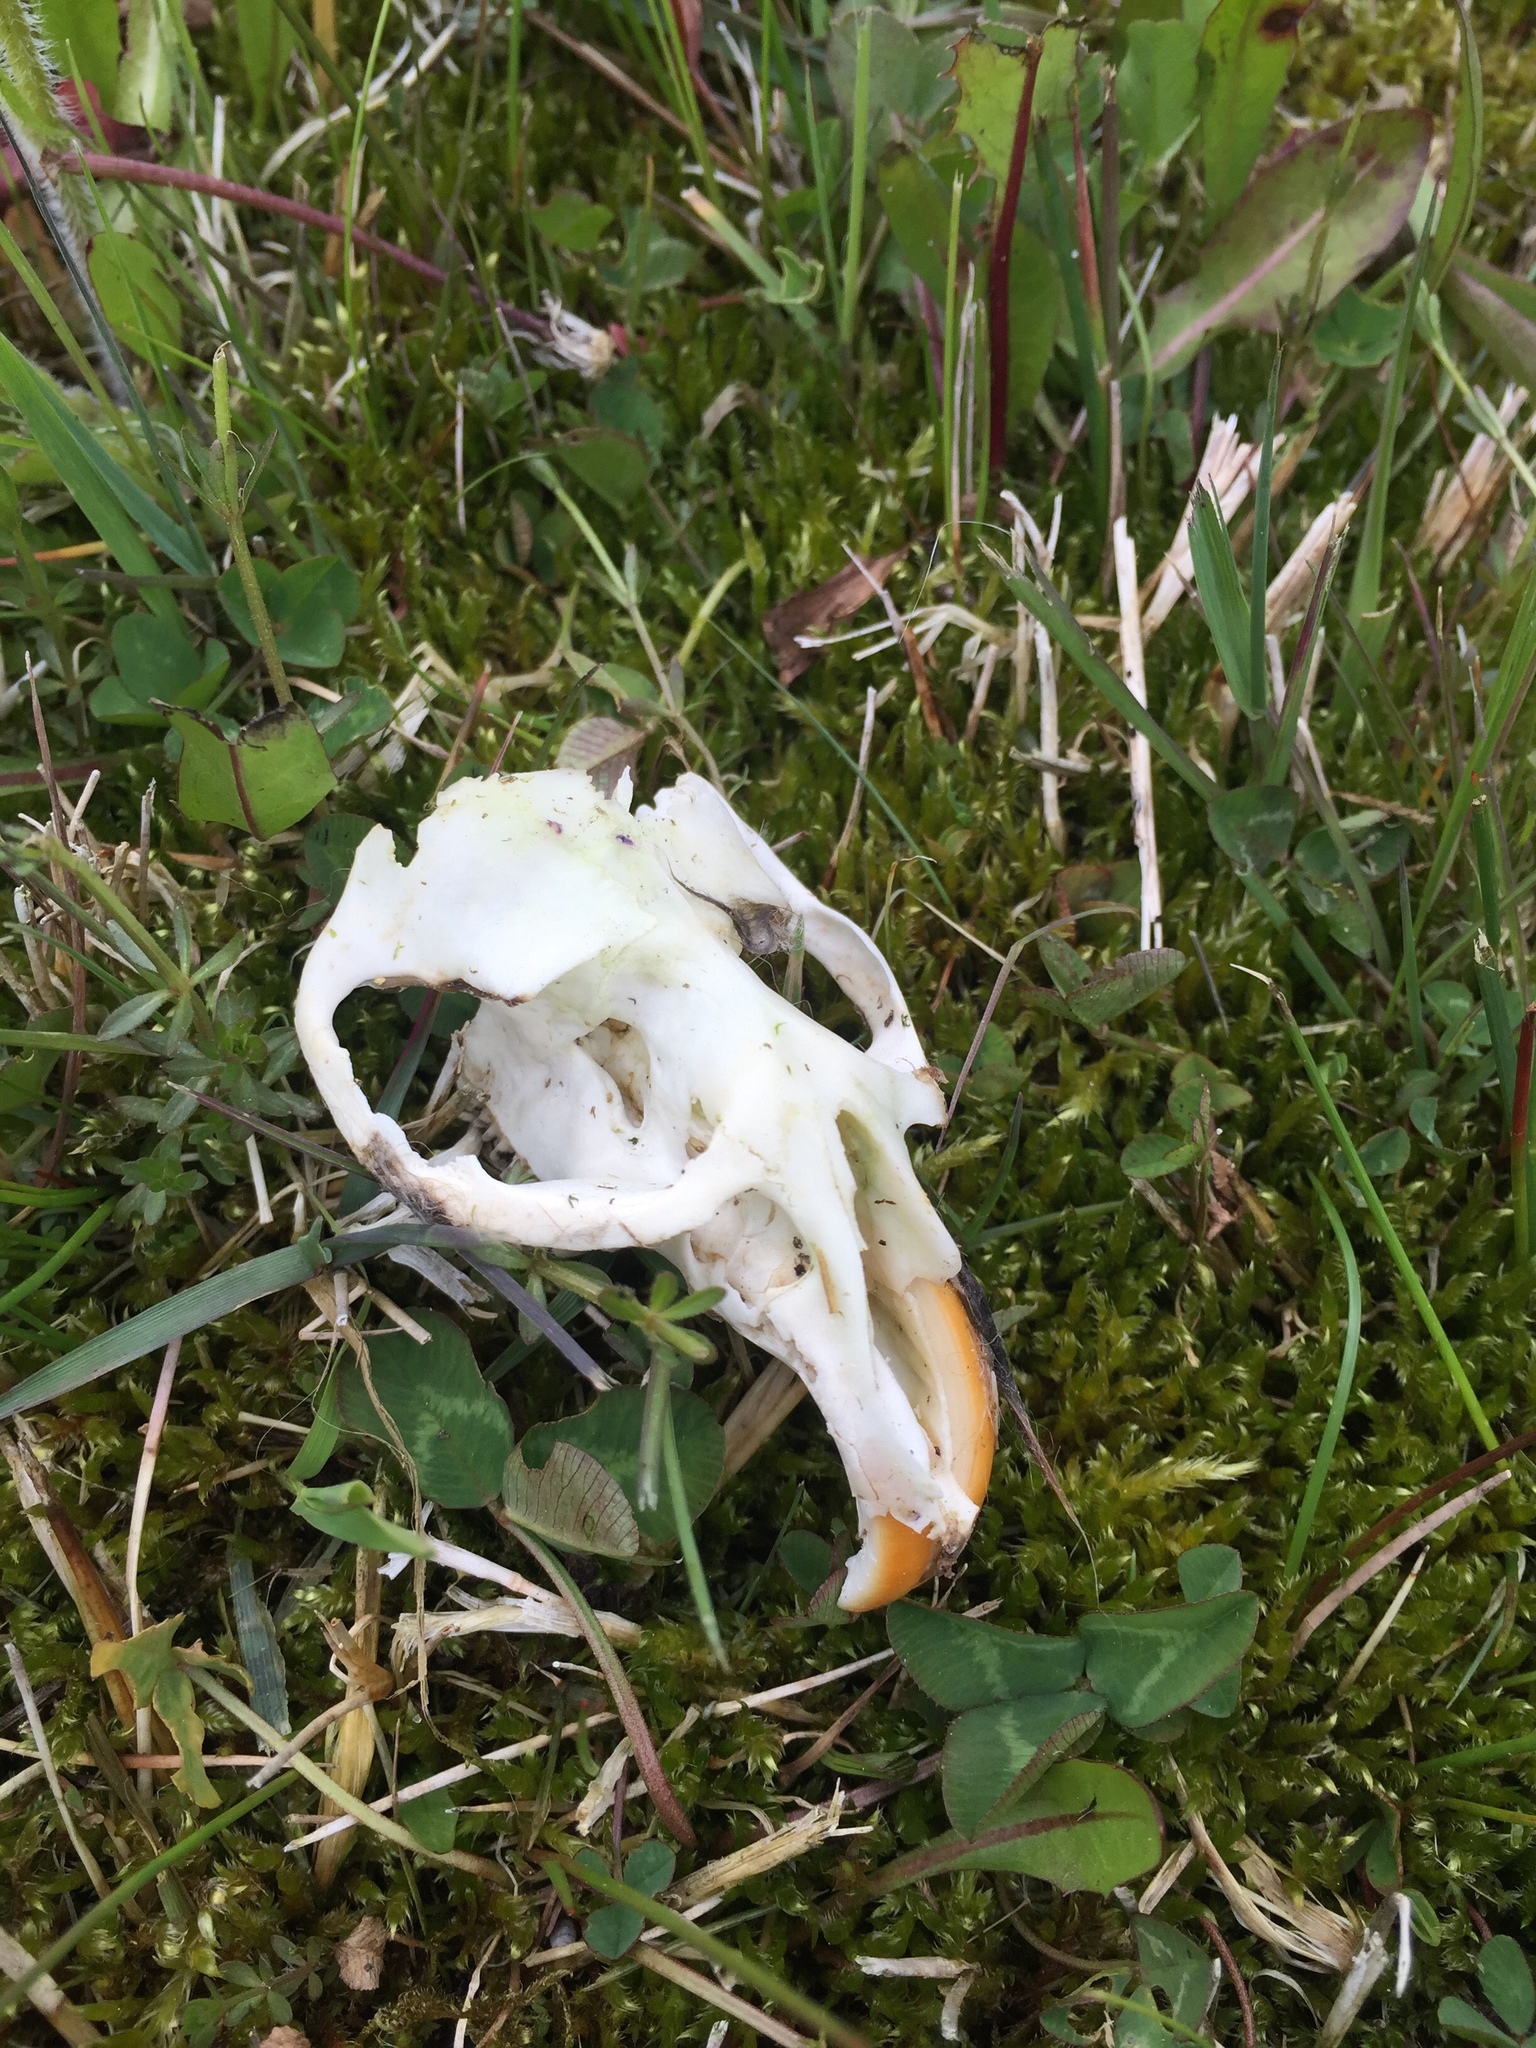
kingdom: Animalia
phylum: Chordata
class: Mammalia
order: Rodentia
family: Cricetidae
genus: Ondatra
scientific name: Ondatra zibethicus
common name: Muskrat
